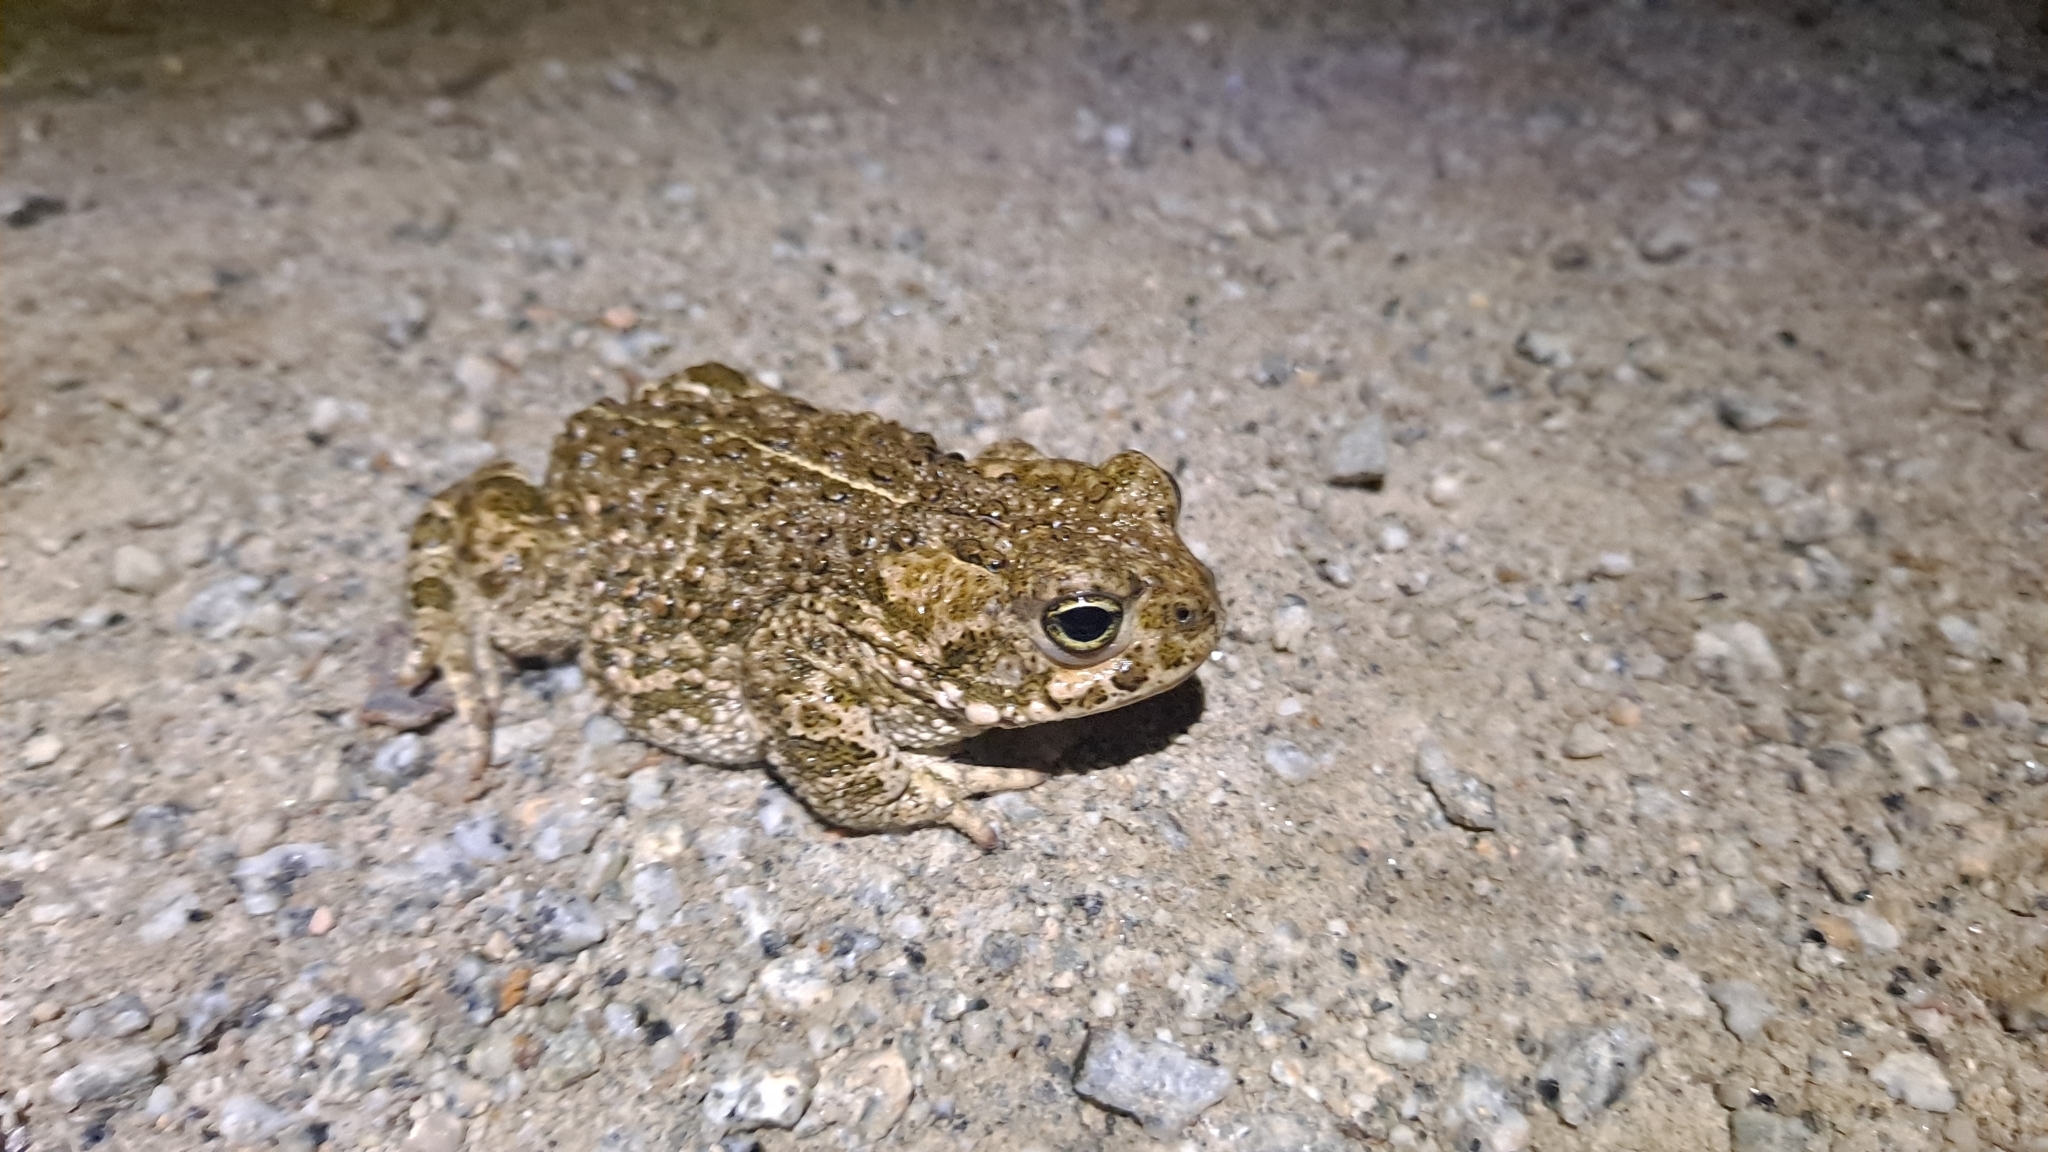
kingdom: Animalia
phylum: Chordata
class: Amphibia
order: Anura
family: Bufonidae
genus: Epidalea
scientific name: Epidalea calamita
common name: Natterjack toad
